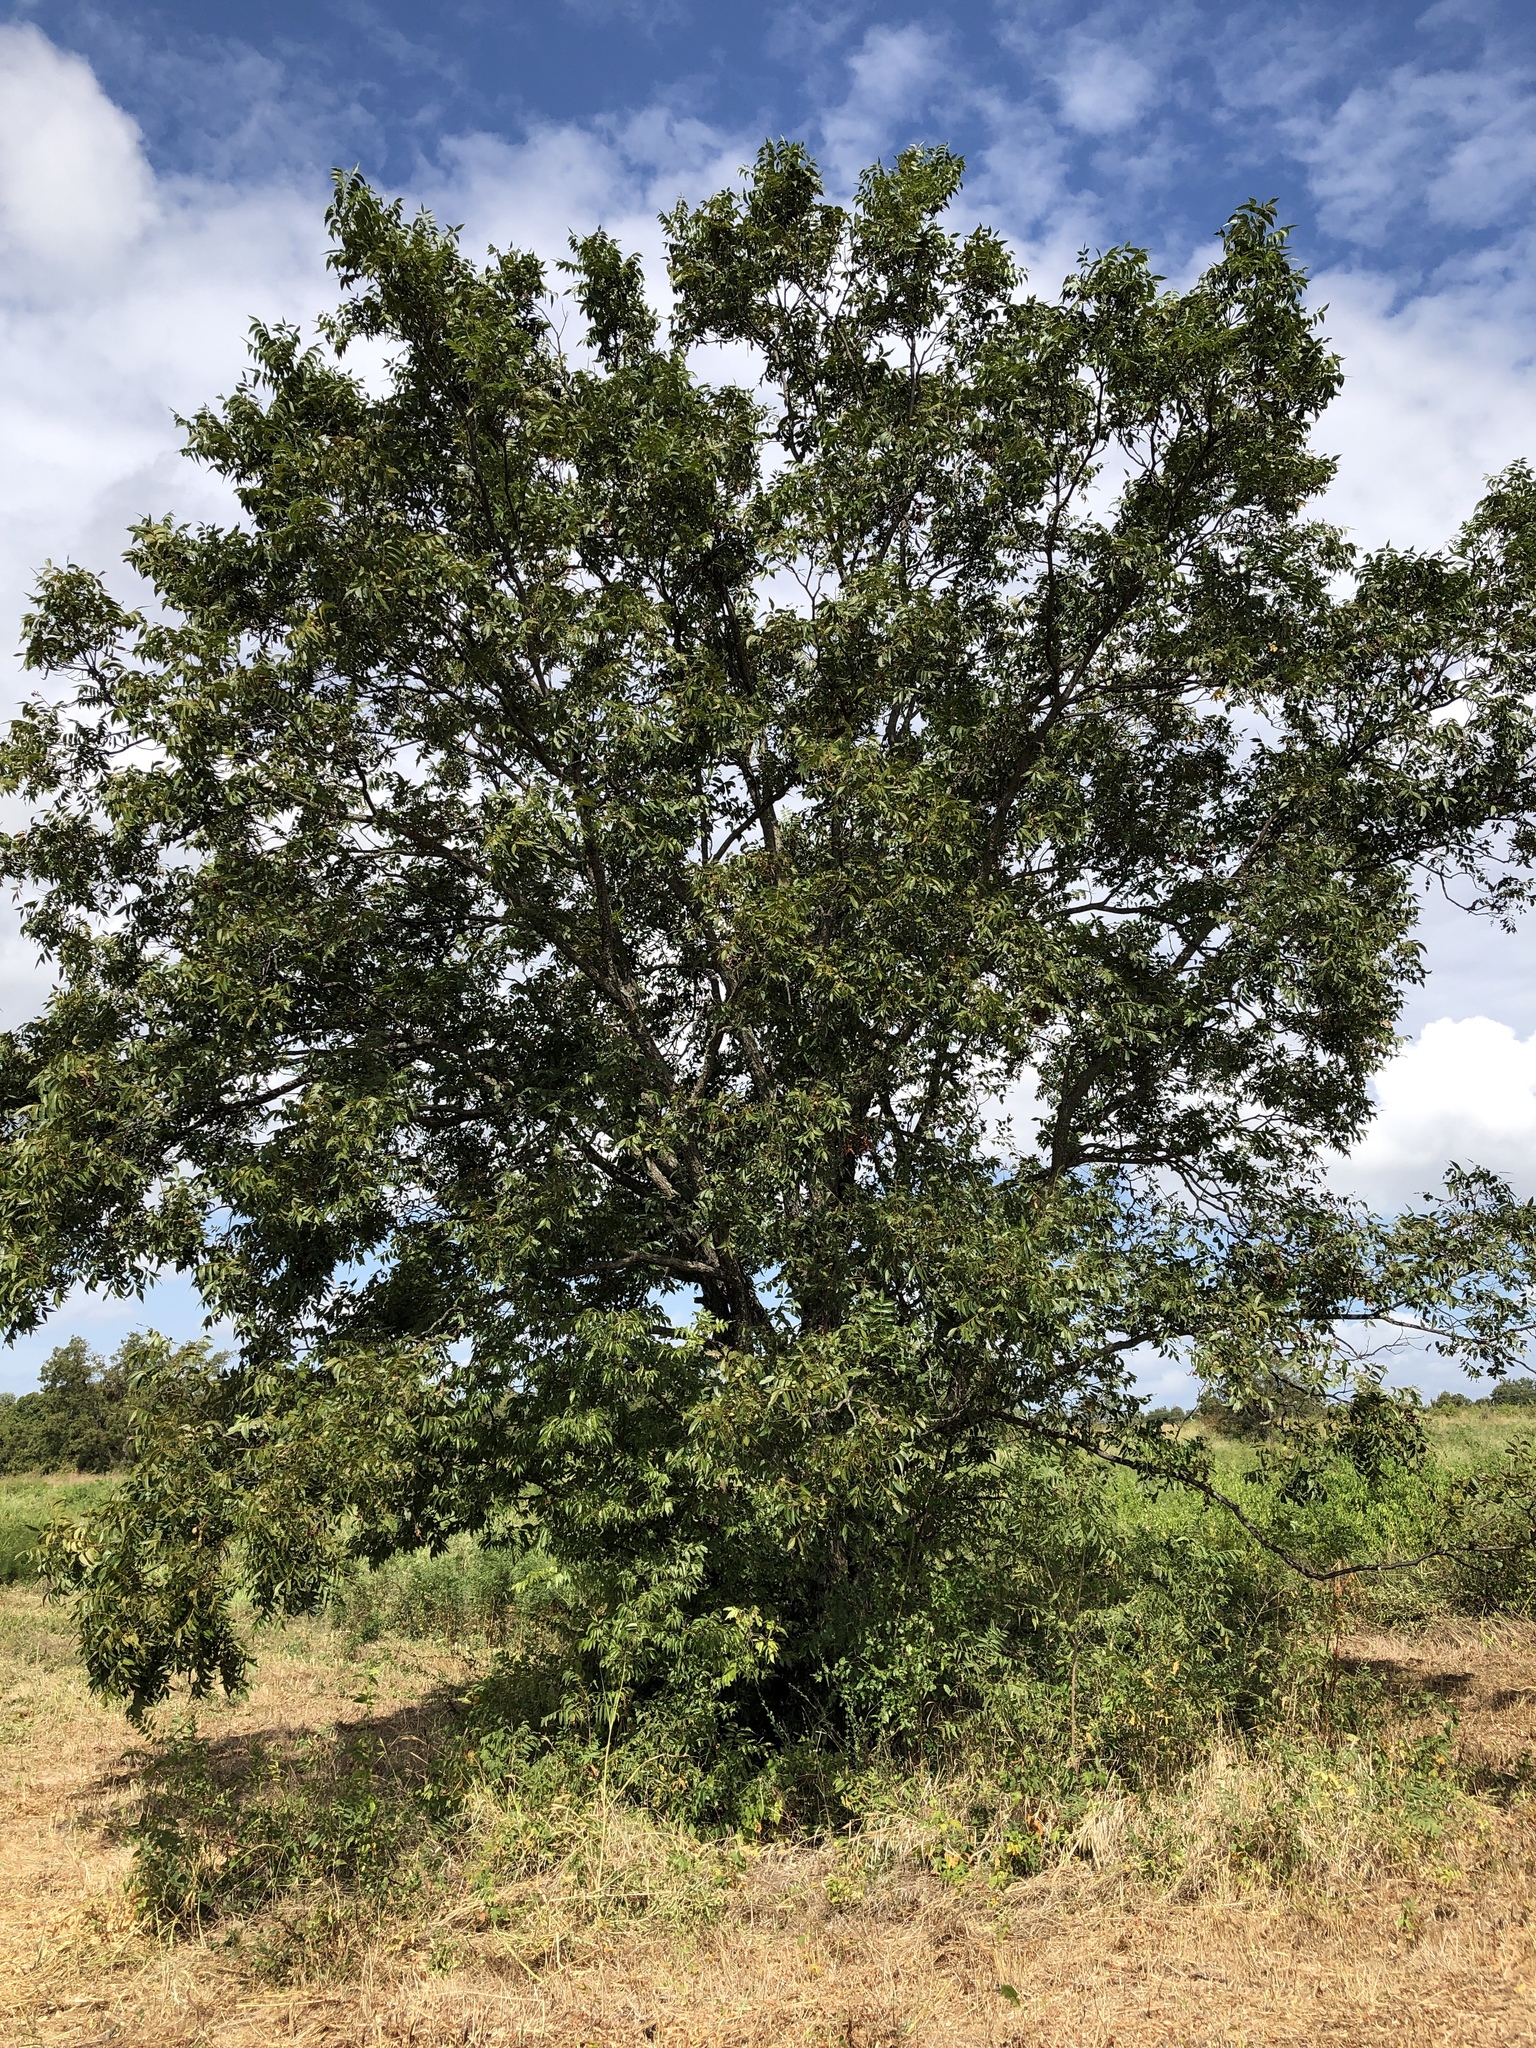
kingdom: Plantae
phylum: Tracheophyta
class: Magnoliopsida
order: Fagales
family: Juglandaceae
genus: Carya
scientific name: Carya illinoinensis
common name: Pecan
